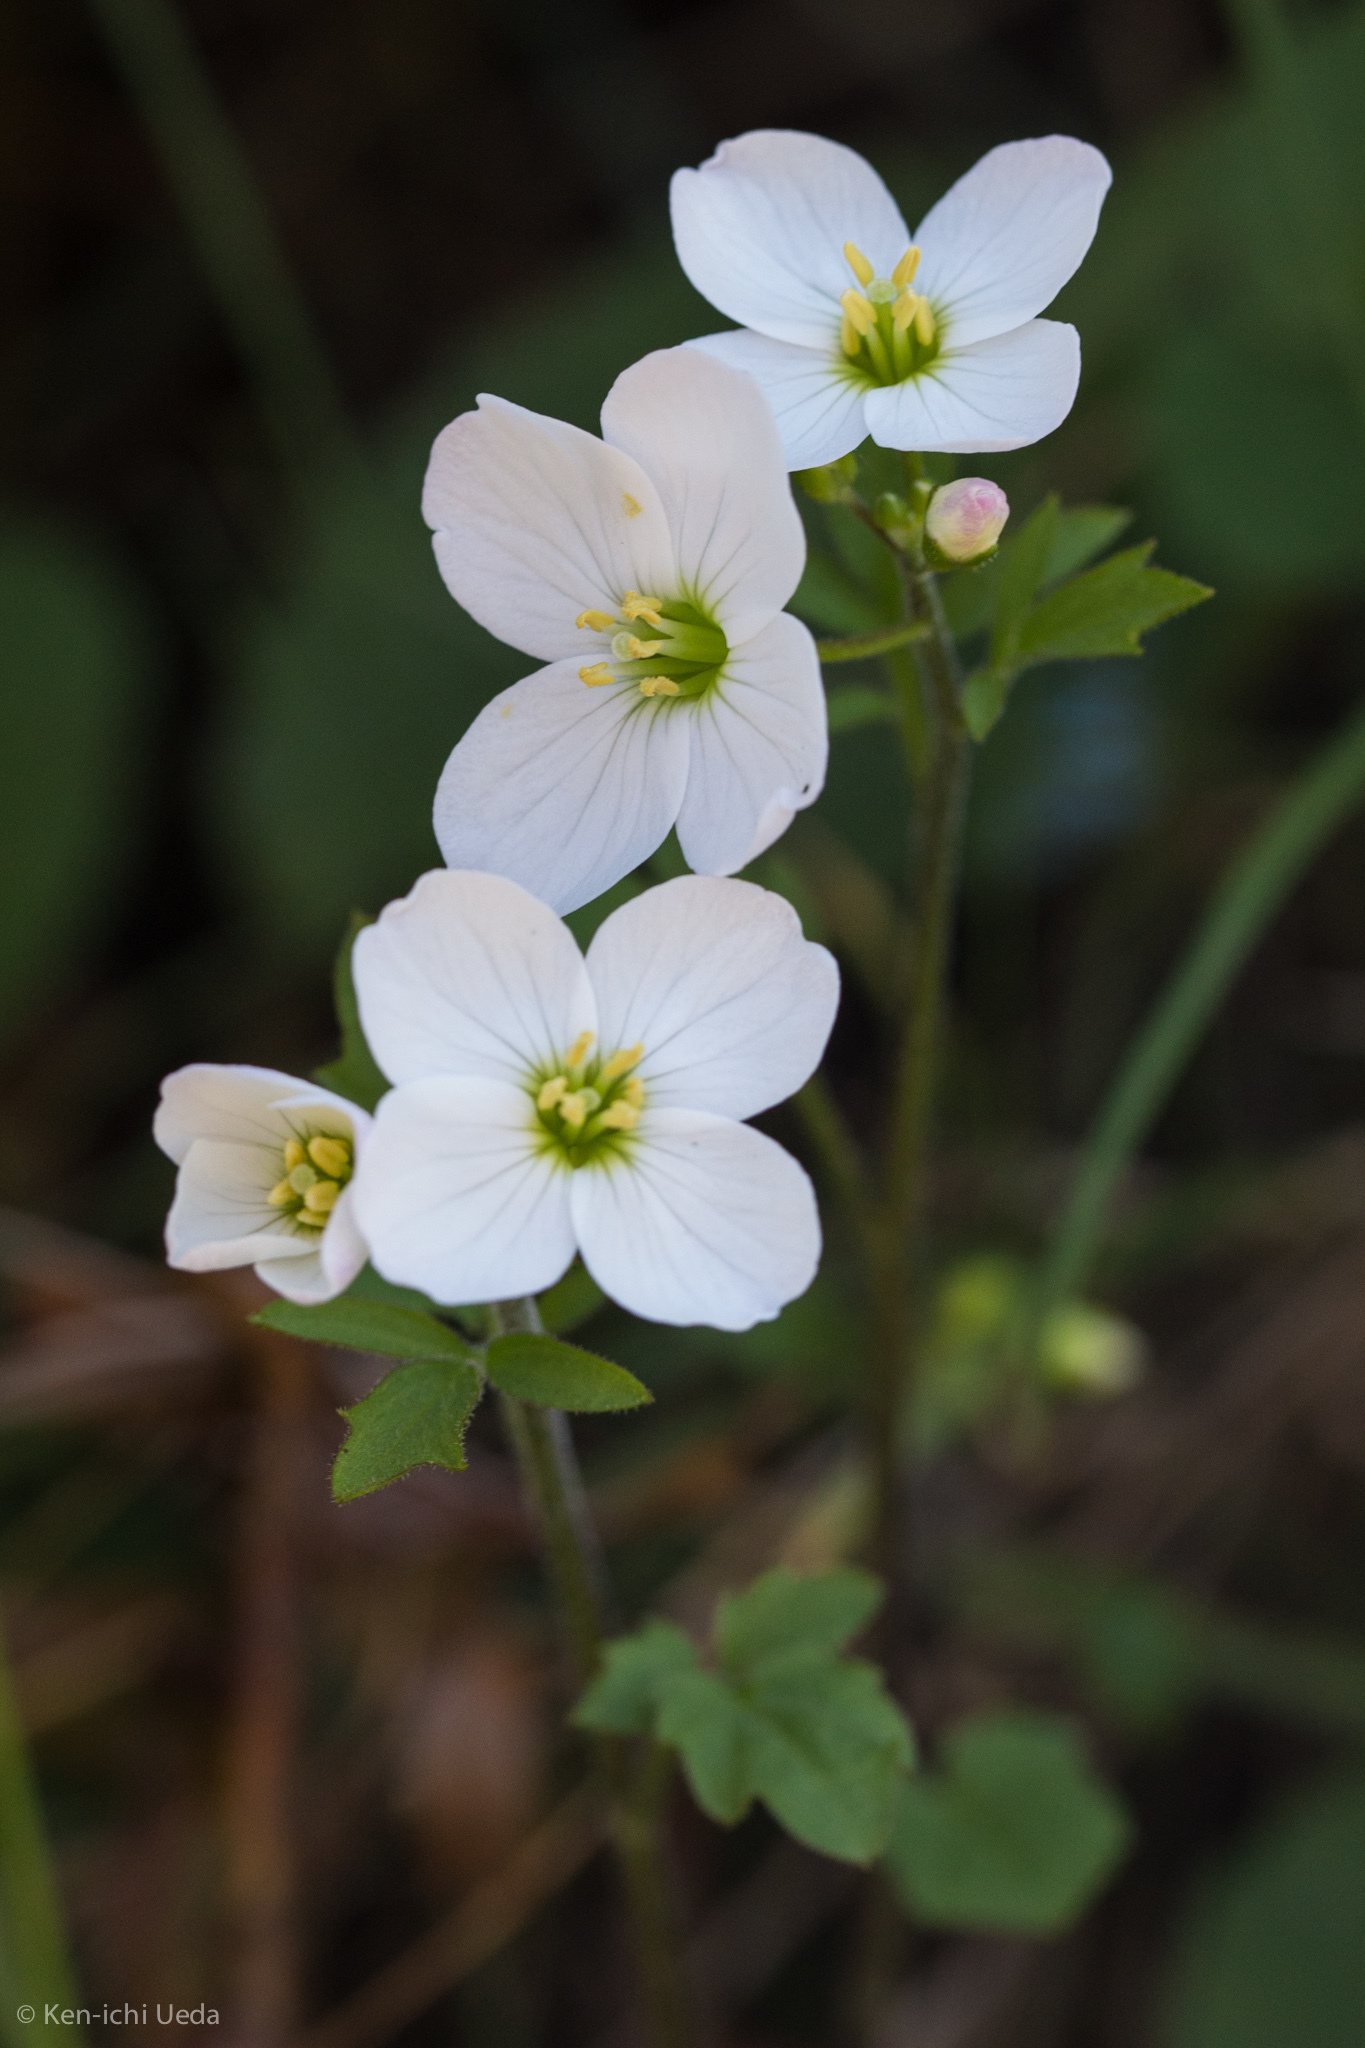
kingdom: Plantae
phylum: Tracheophyta
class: Magnoliopsida
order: Brassicales
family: Brassicaceae
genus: Cardamine
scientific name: Cardamine californica
